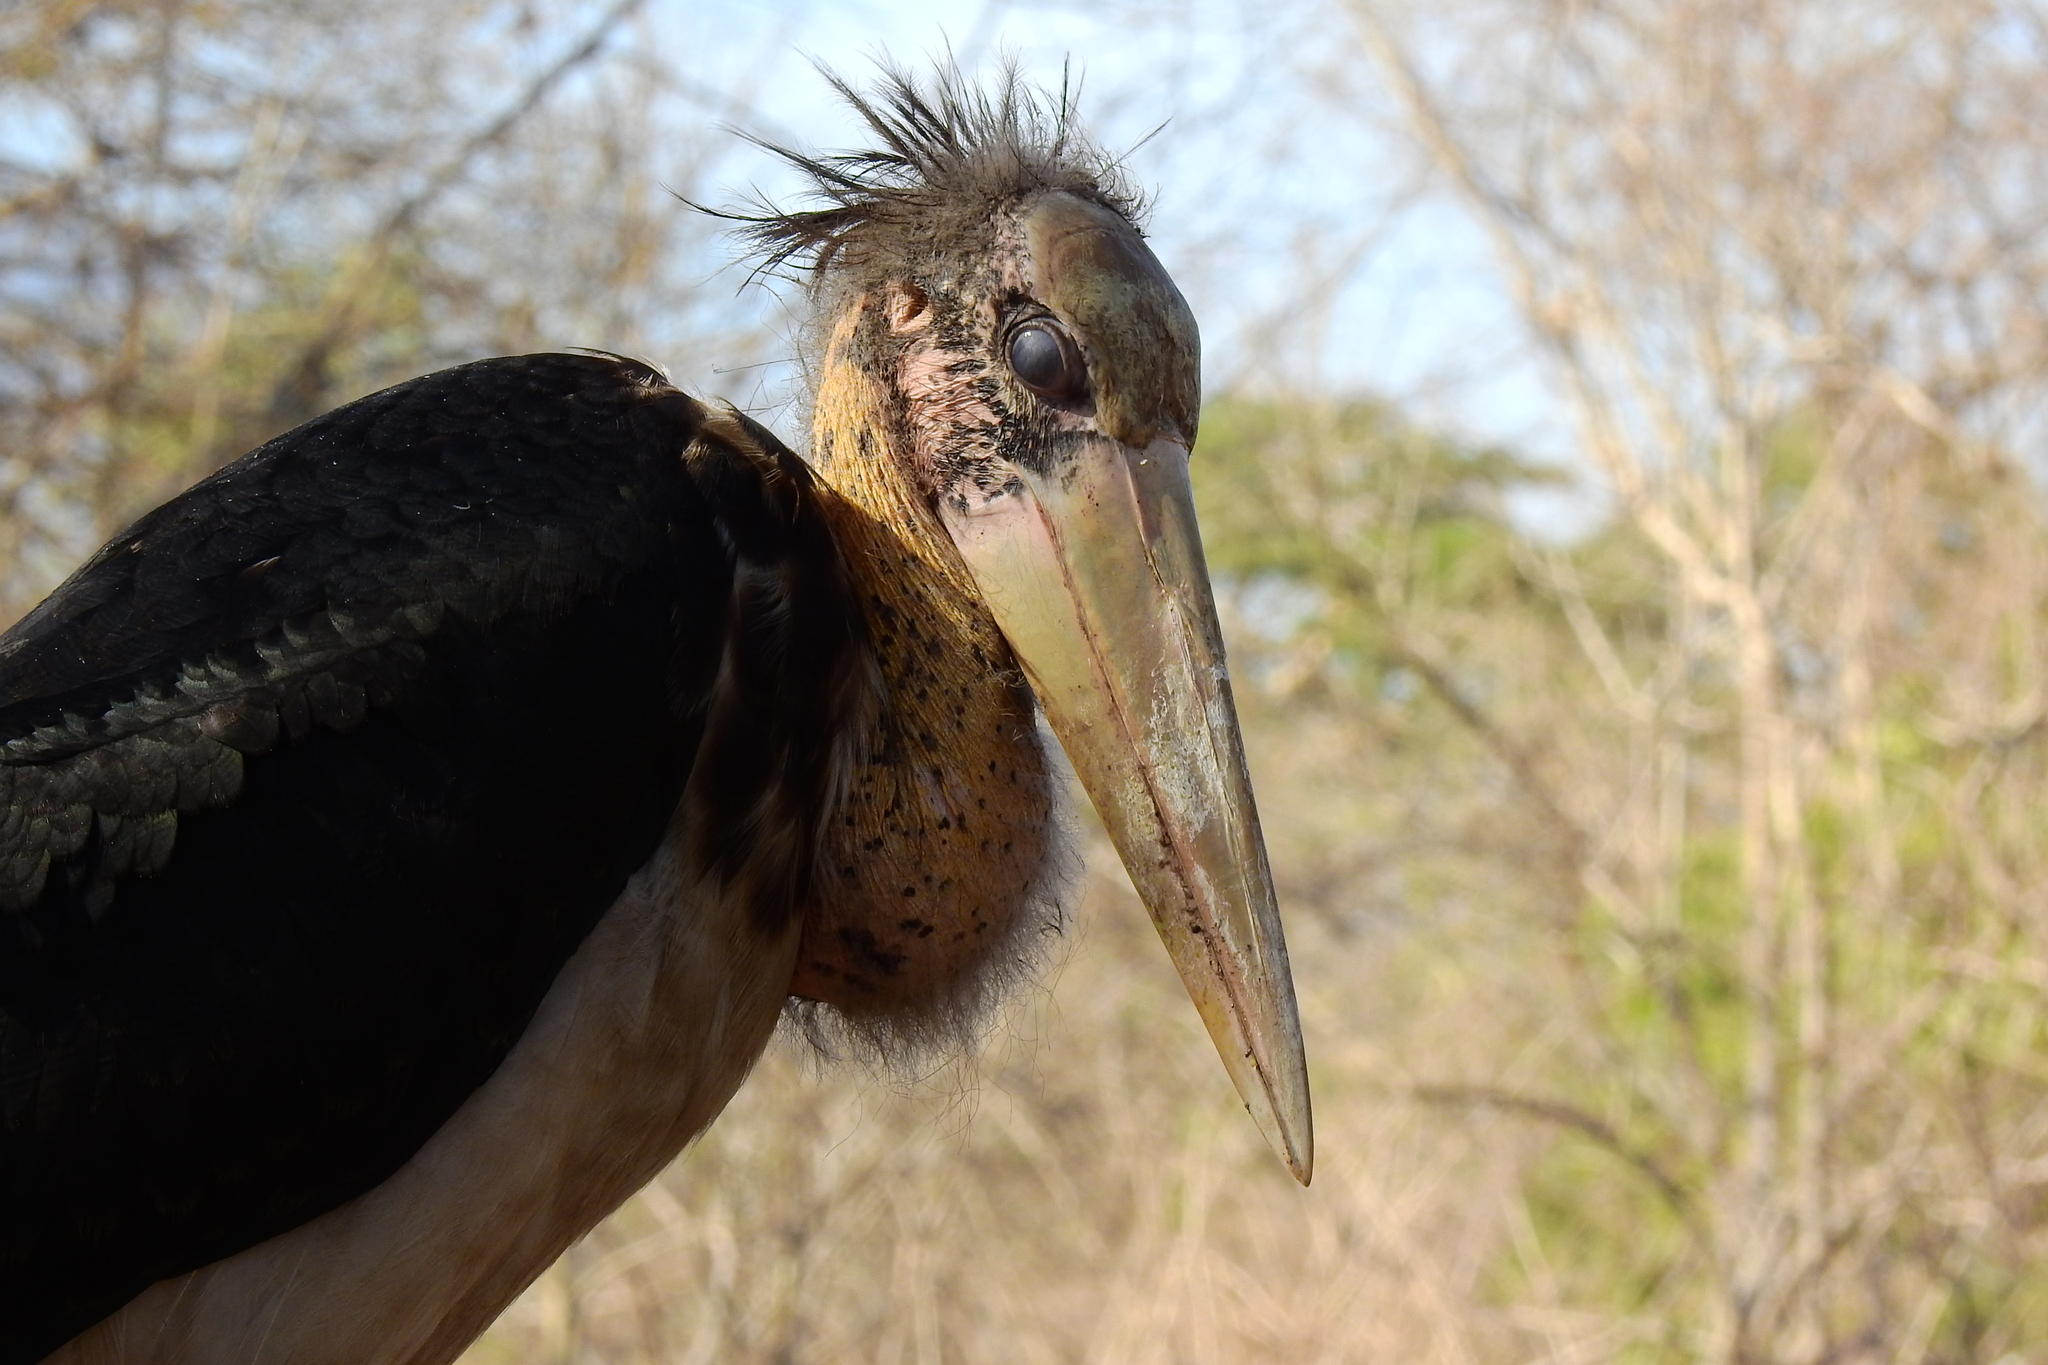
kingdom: Animalia
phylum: Chordata
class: Aves
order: Ciconiiformes
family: Ciconiidae
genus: Leptoptilos
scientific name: Leptoptilos javanicus
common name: Lesser adjutant
